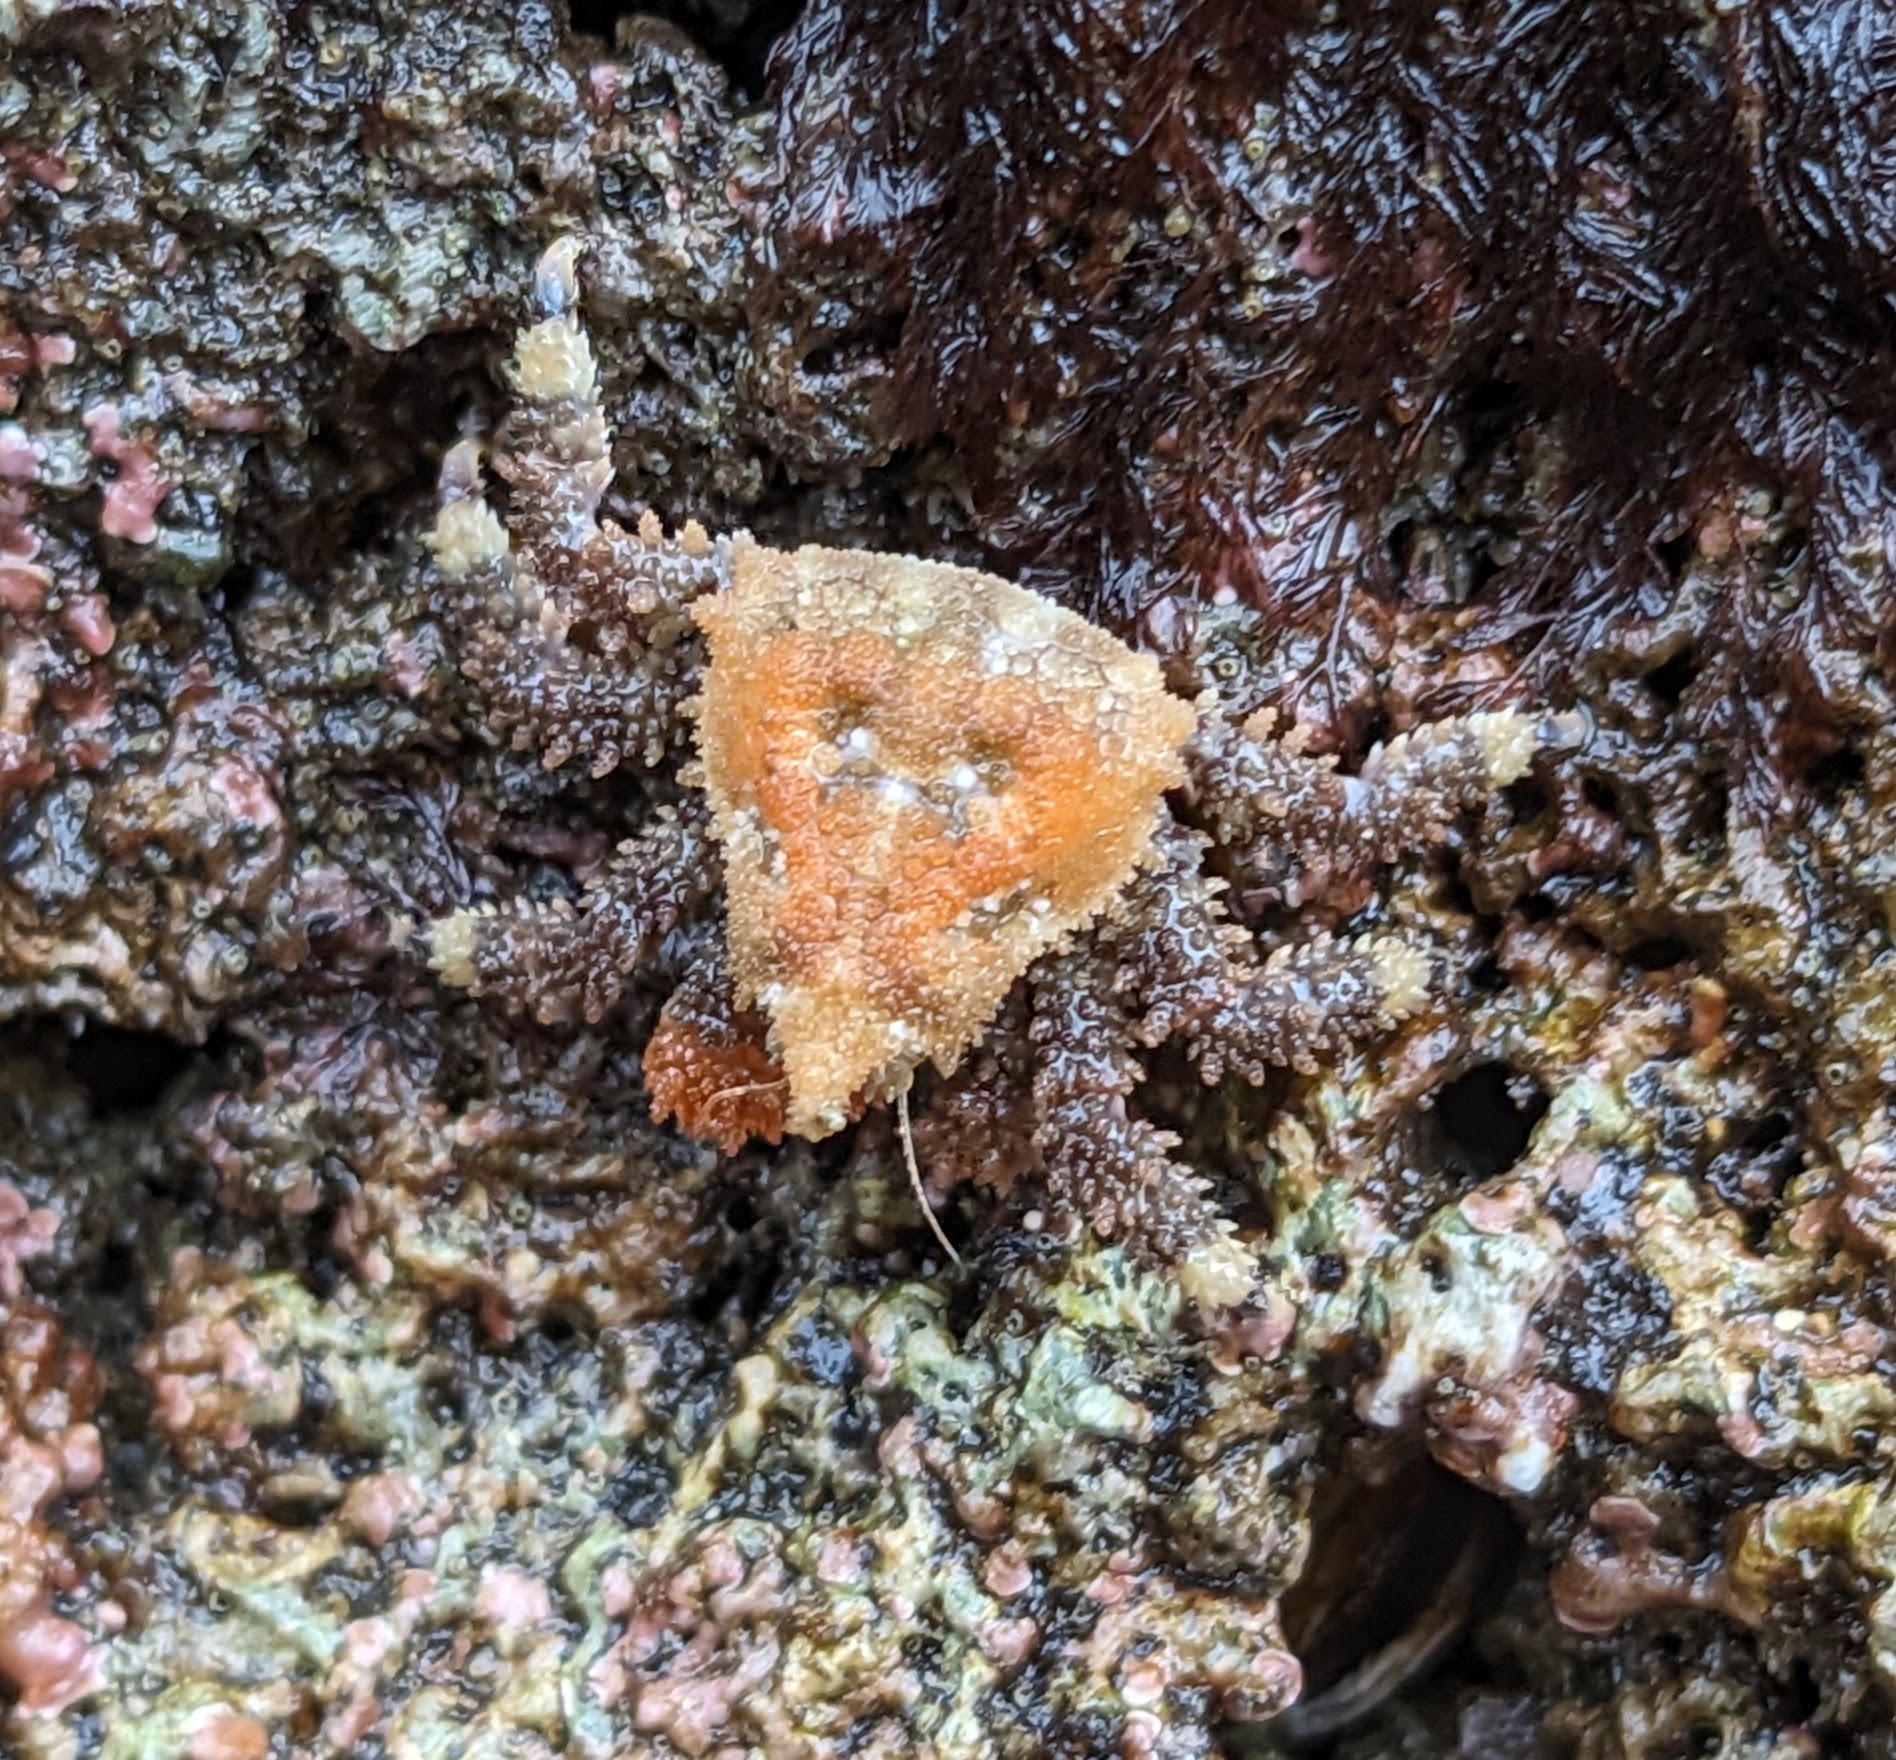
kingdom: Animalia
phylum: Arthropoda
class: Malacostraca
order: Decapoda
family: Lithodidae
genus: Phyllolithodes
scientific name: Phyllolithodes papillosus
